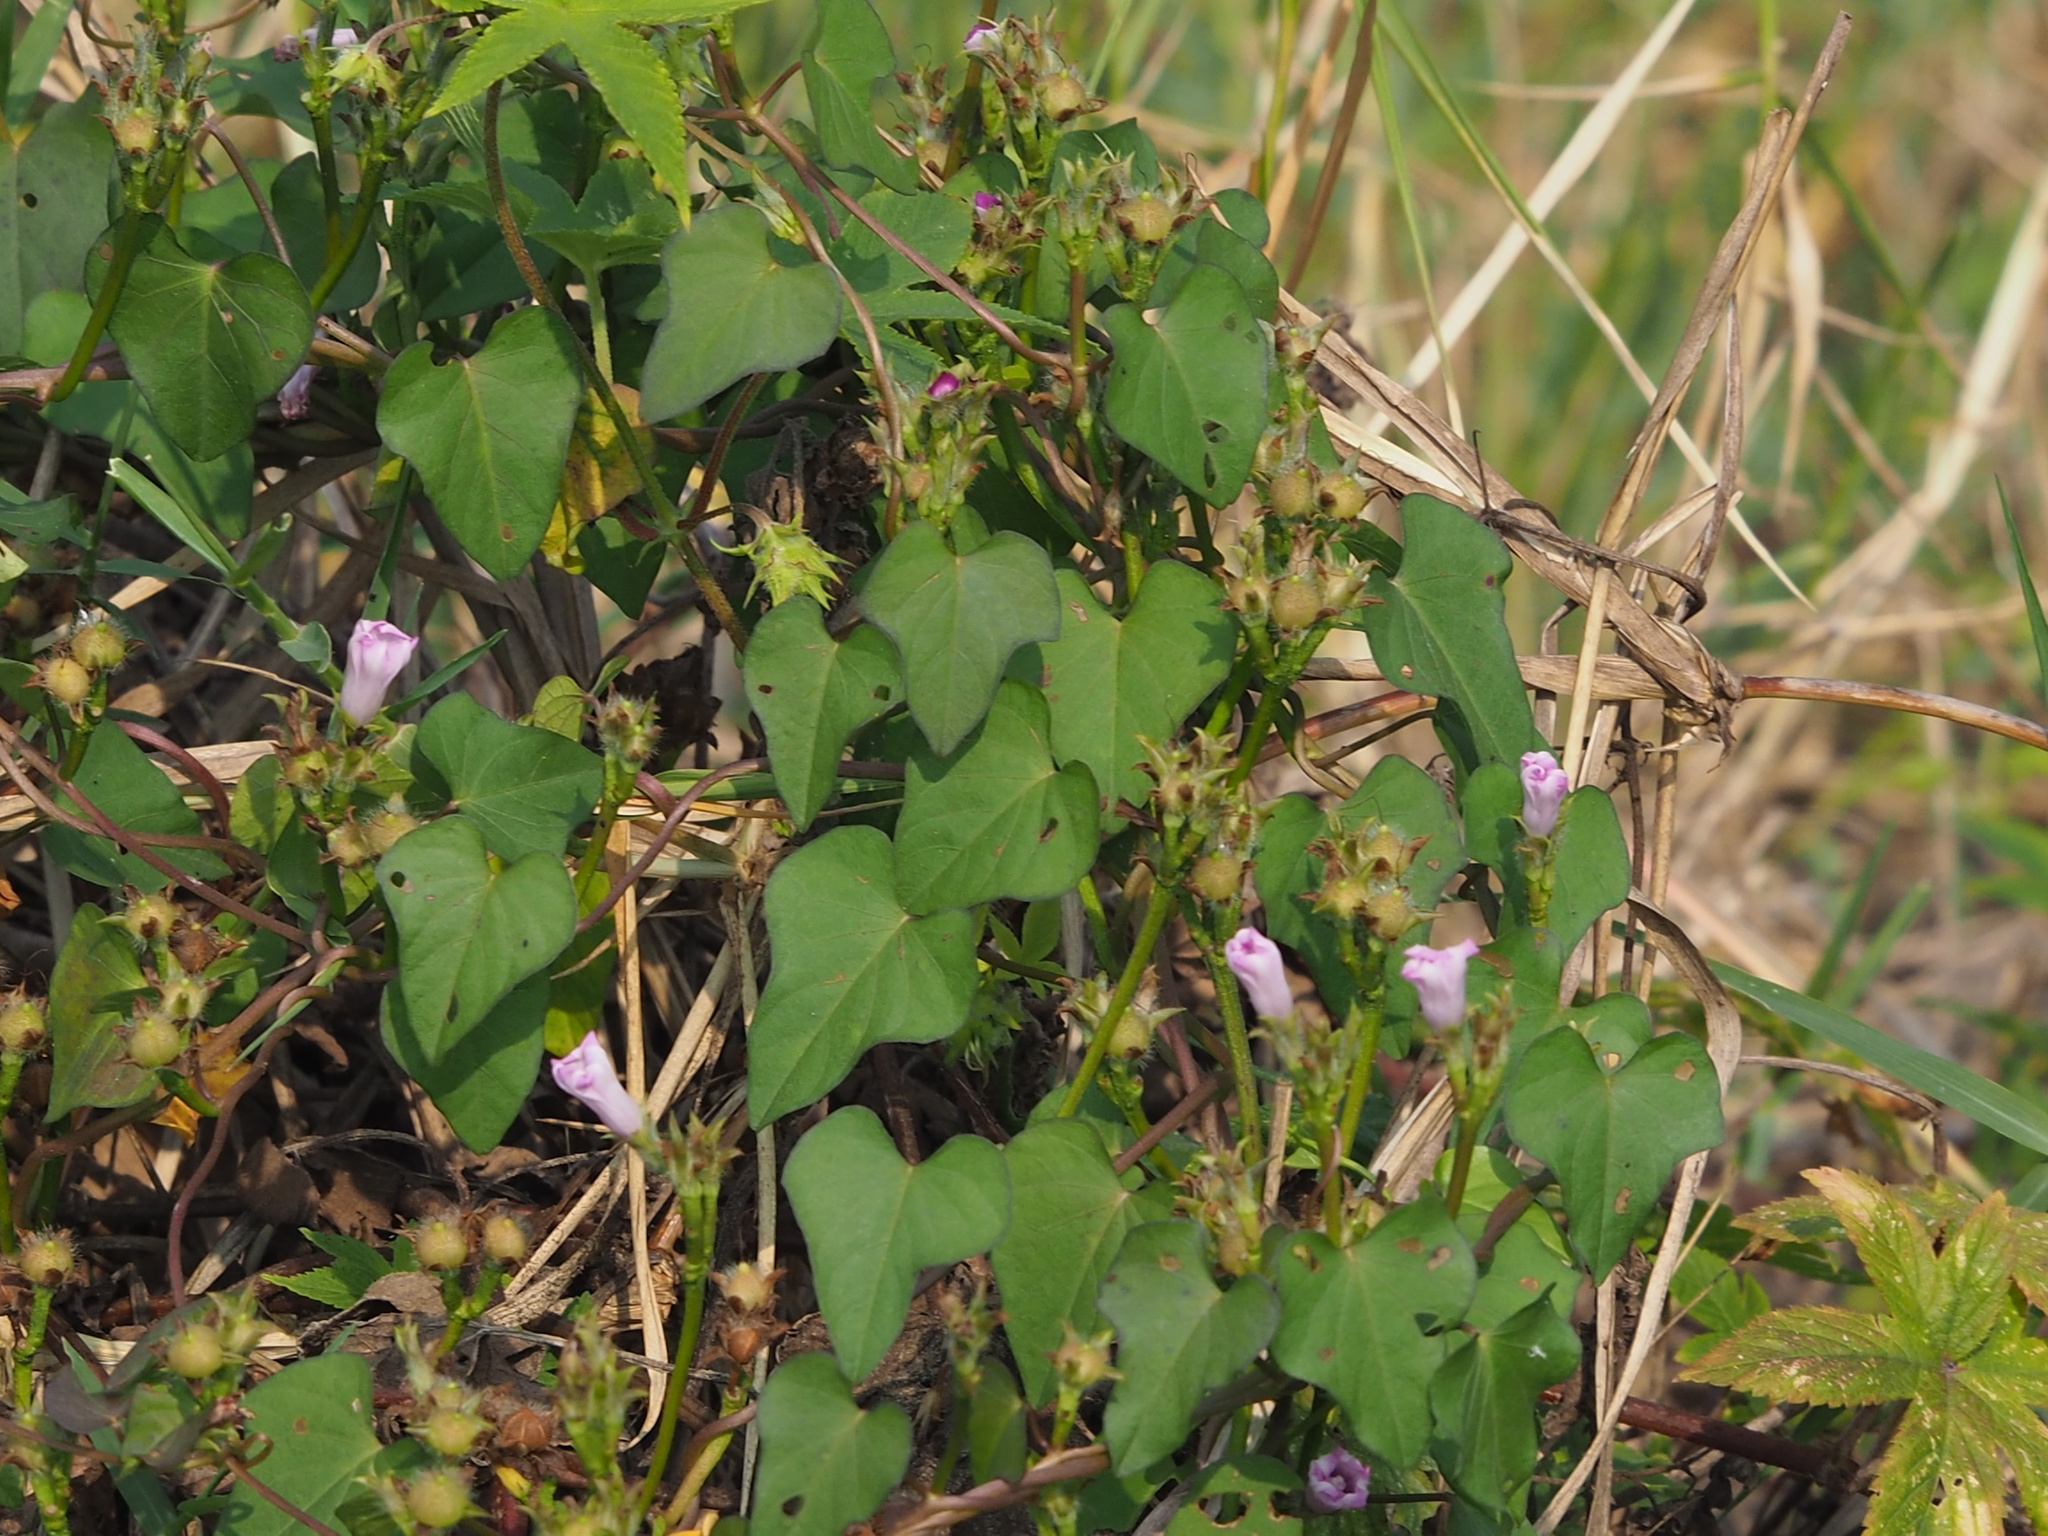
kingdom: Plantae
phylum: Tracheophyta
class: Magnoliopsida
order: Solanales
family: Convolvulaceae
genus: Ipomoea
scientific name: Ipomoea triloba
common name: Little-bell
